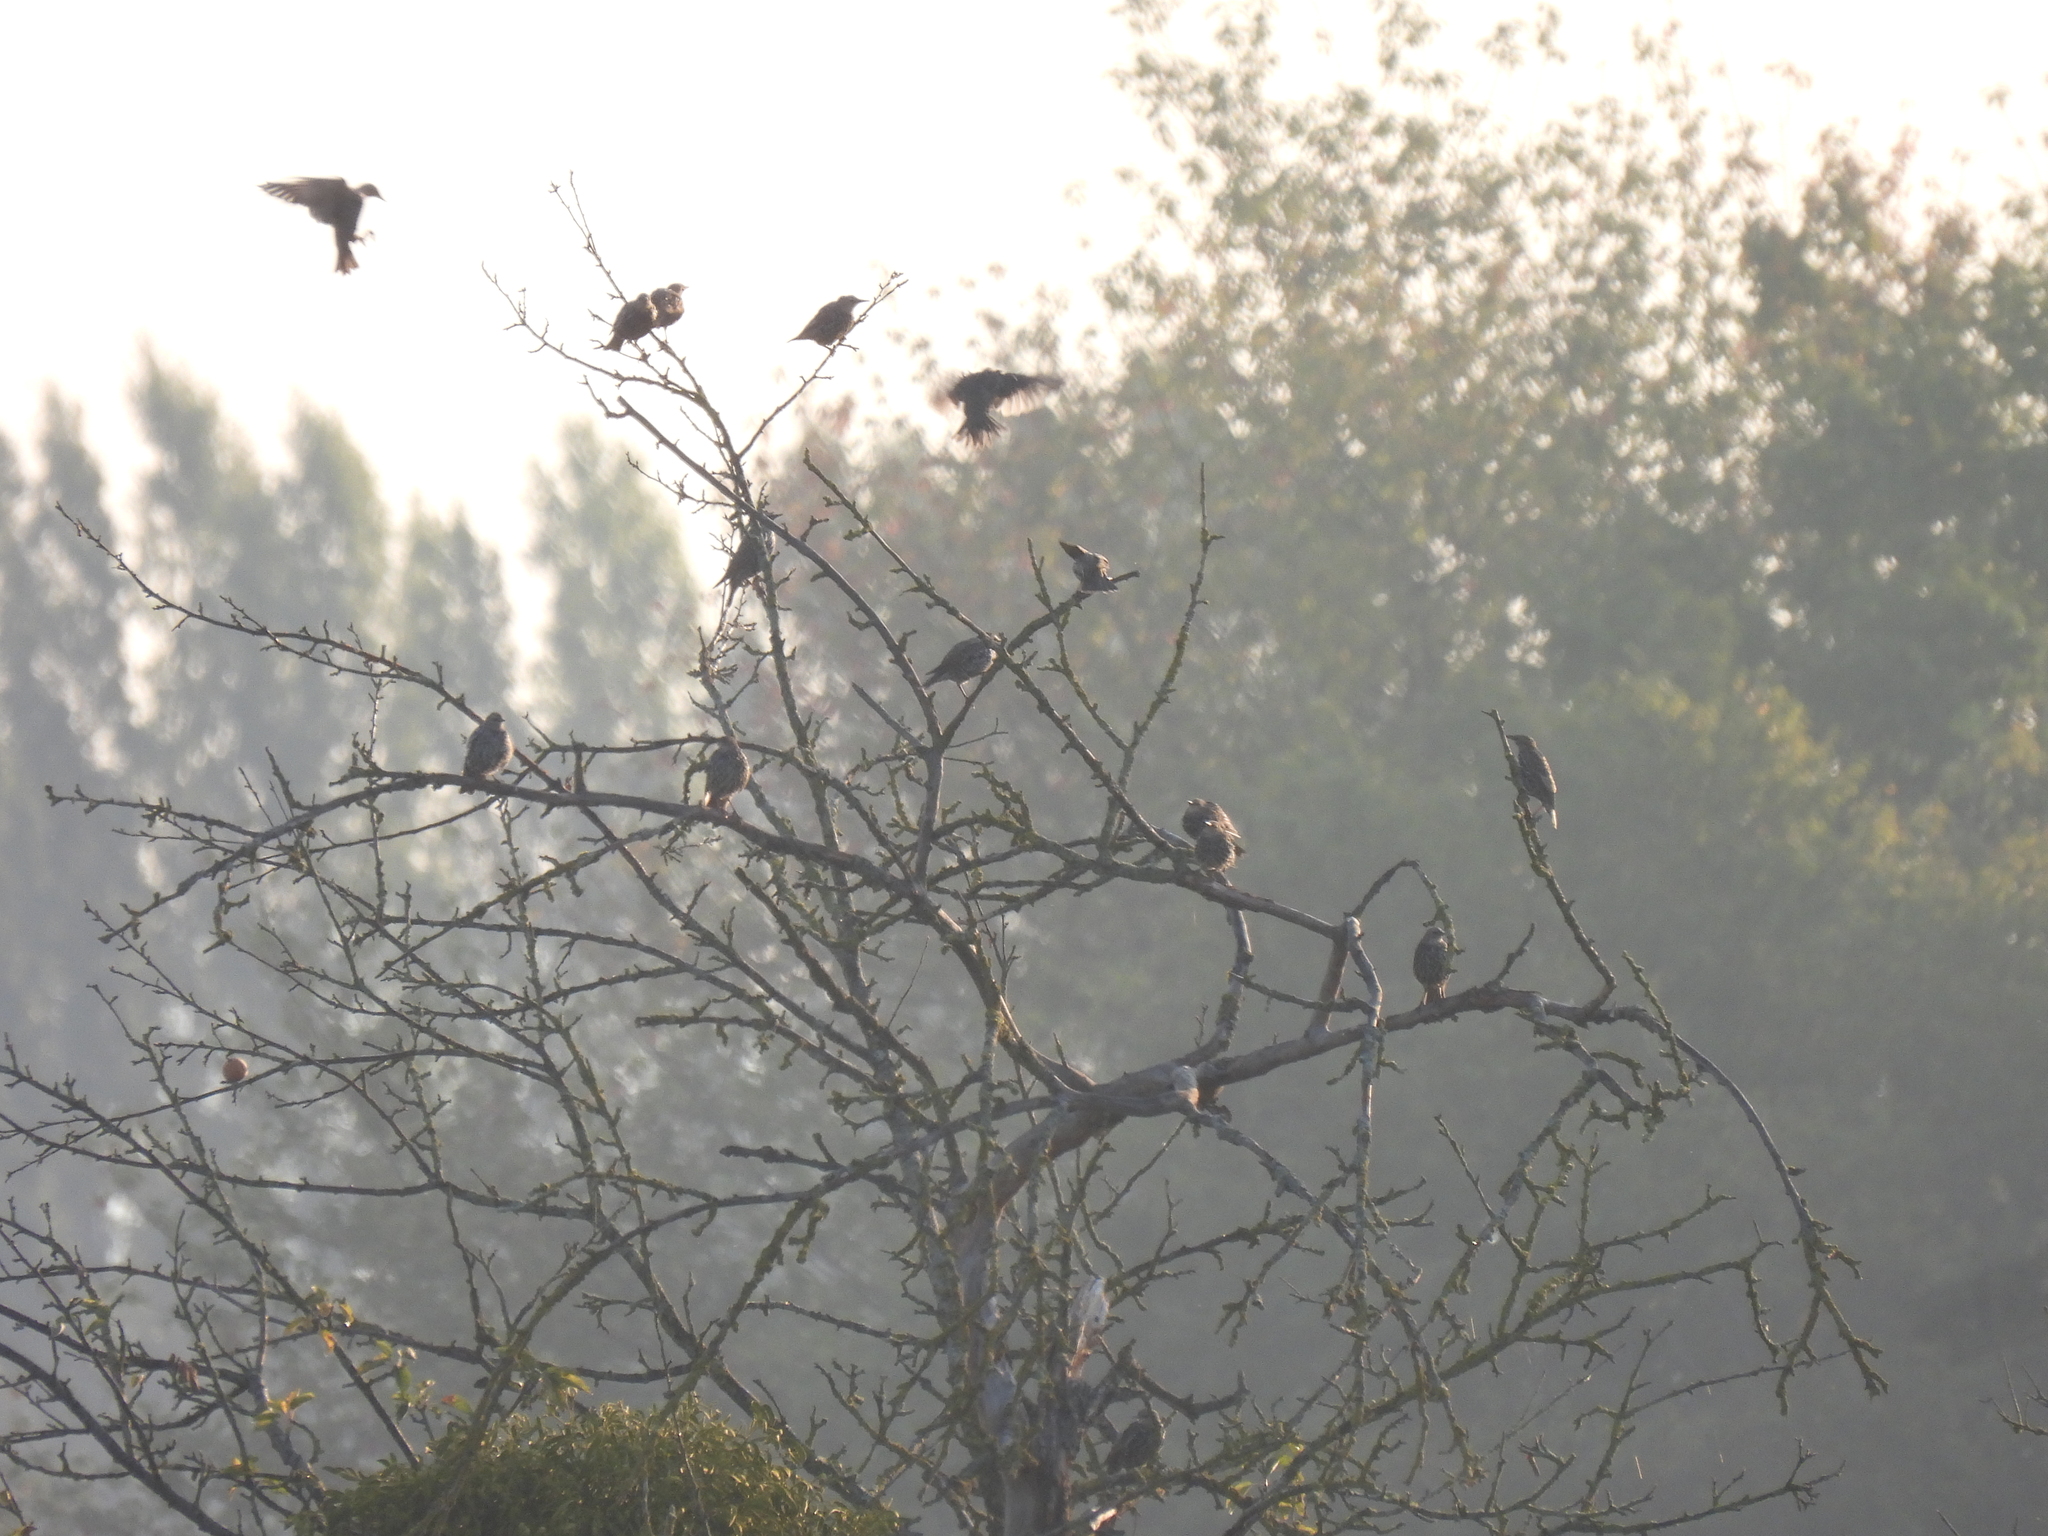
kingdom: Animalia
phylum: Chordata
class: Aves
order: Passeriformes
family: Sturnidae
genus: Sturnus
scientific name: Sturnus vulgaris
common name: Common starling
